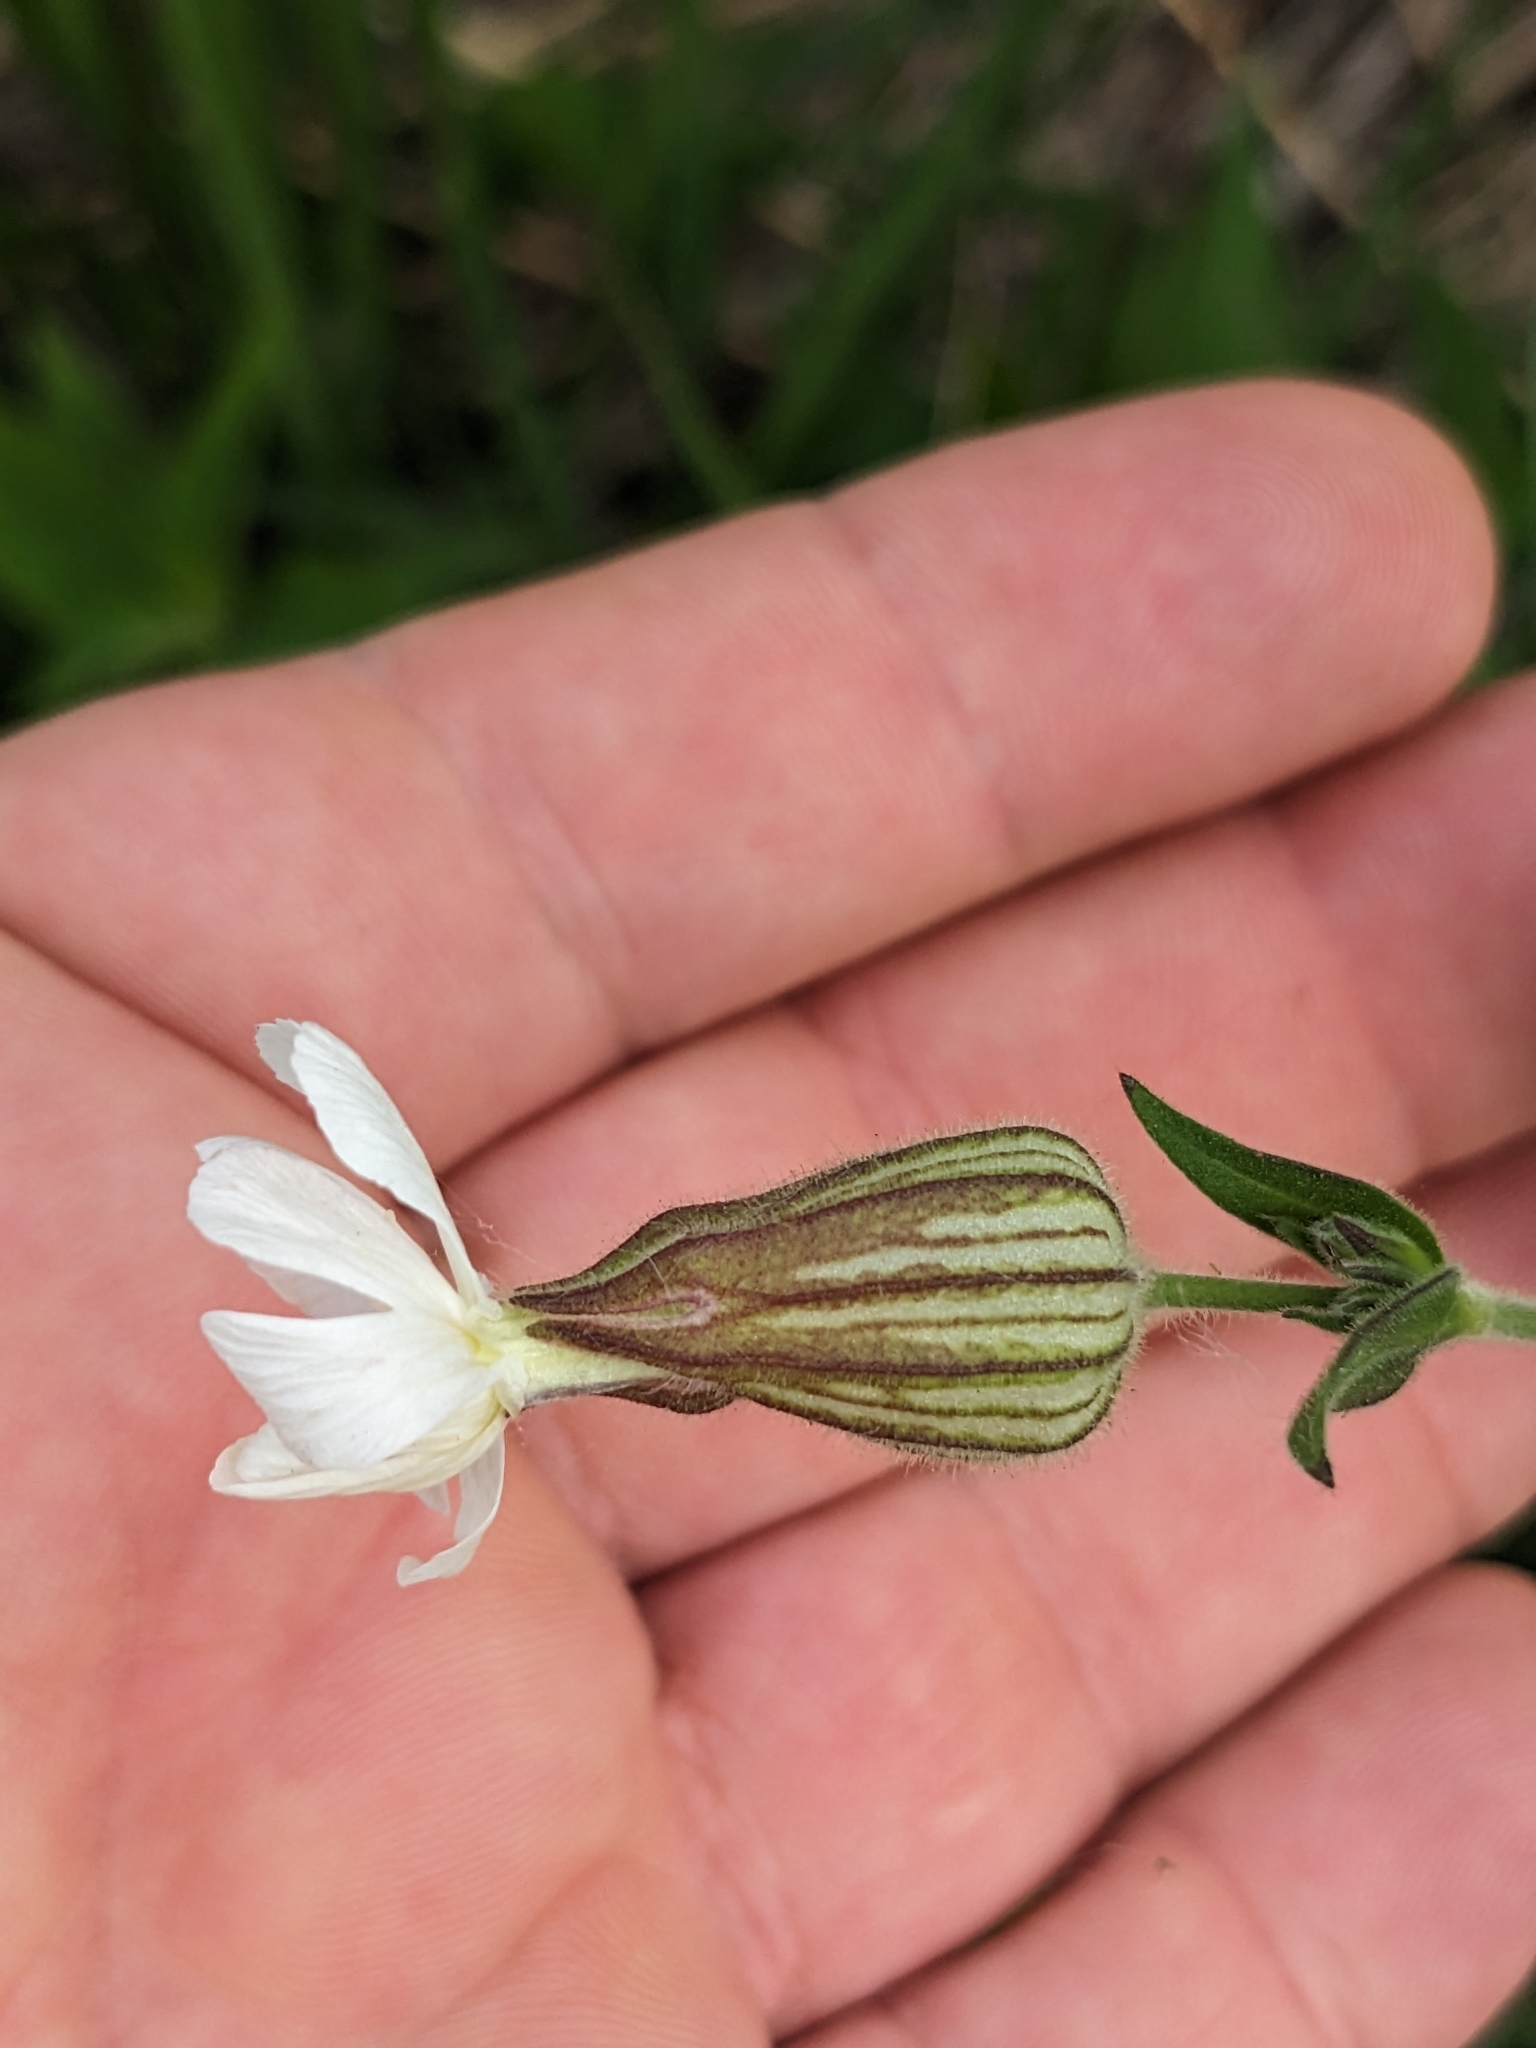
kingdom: Plantae
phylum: Tracheophyta
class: Magnoliopsida
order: Caryophyllales
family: Caryophyllaceae
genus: Silene
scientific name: Silene latifolia
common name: White campion
